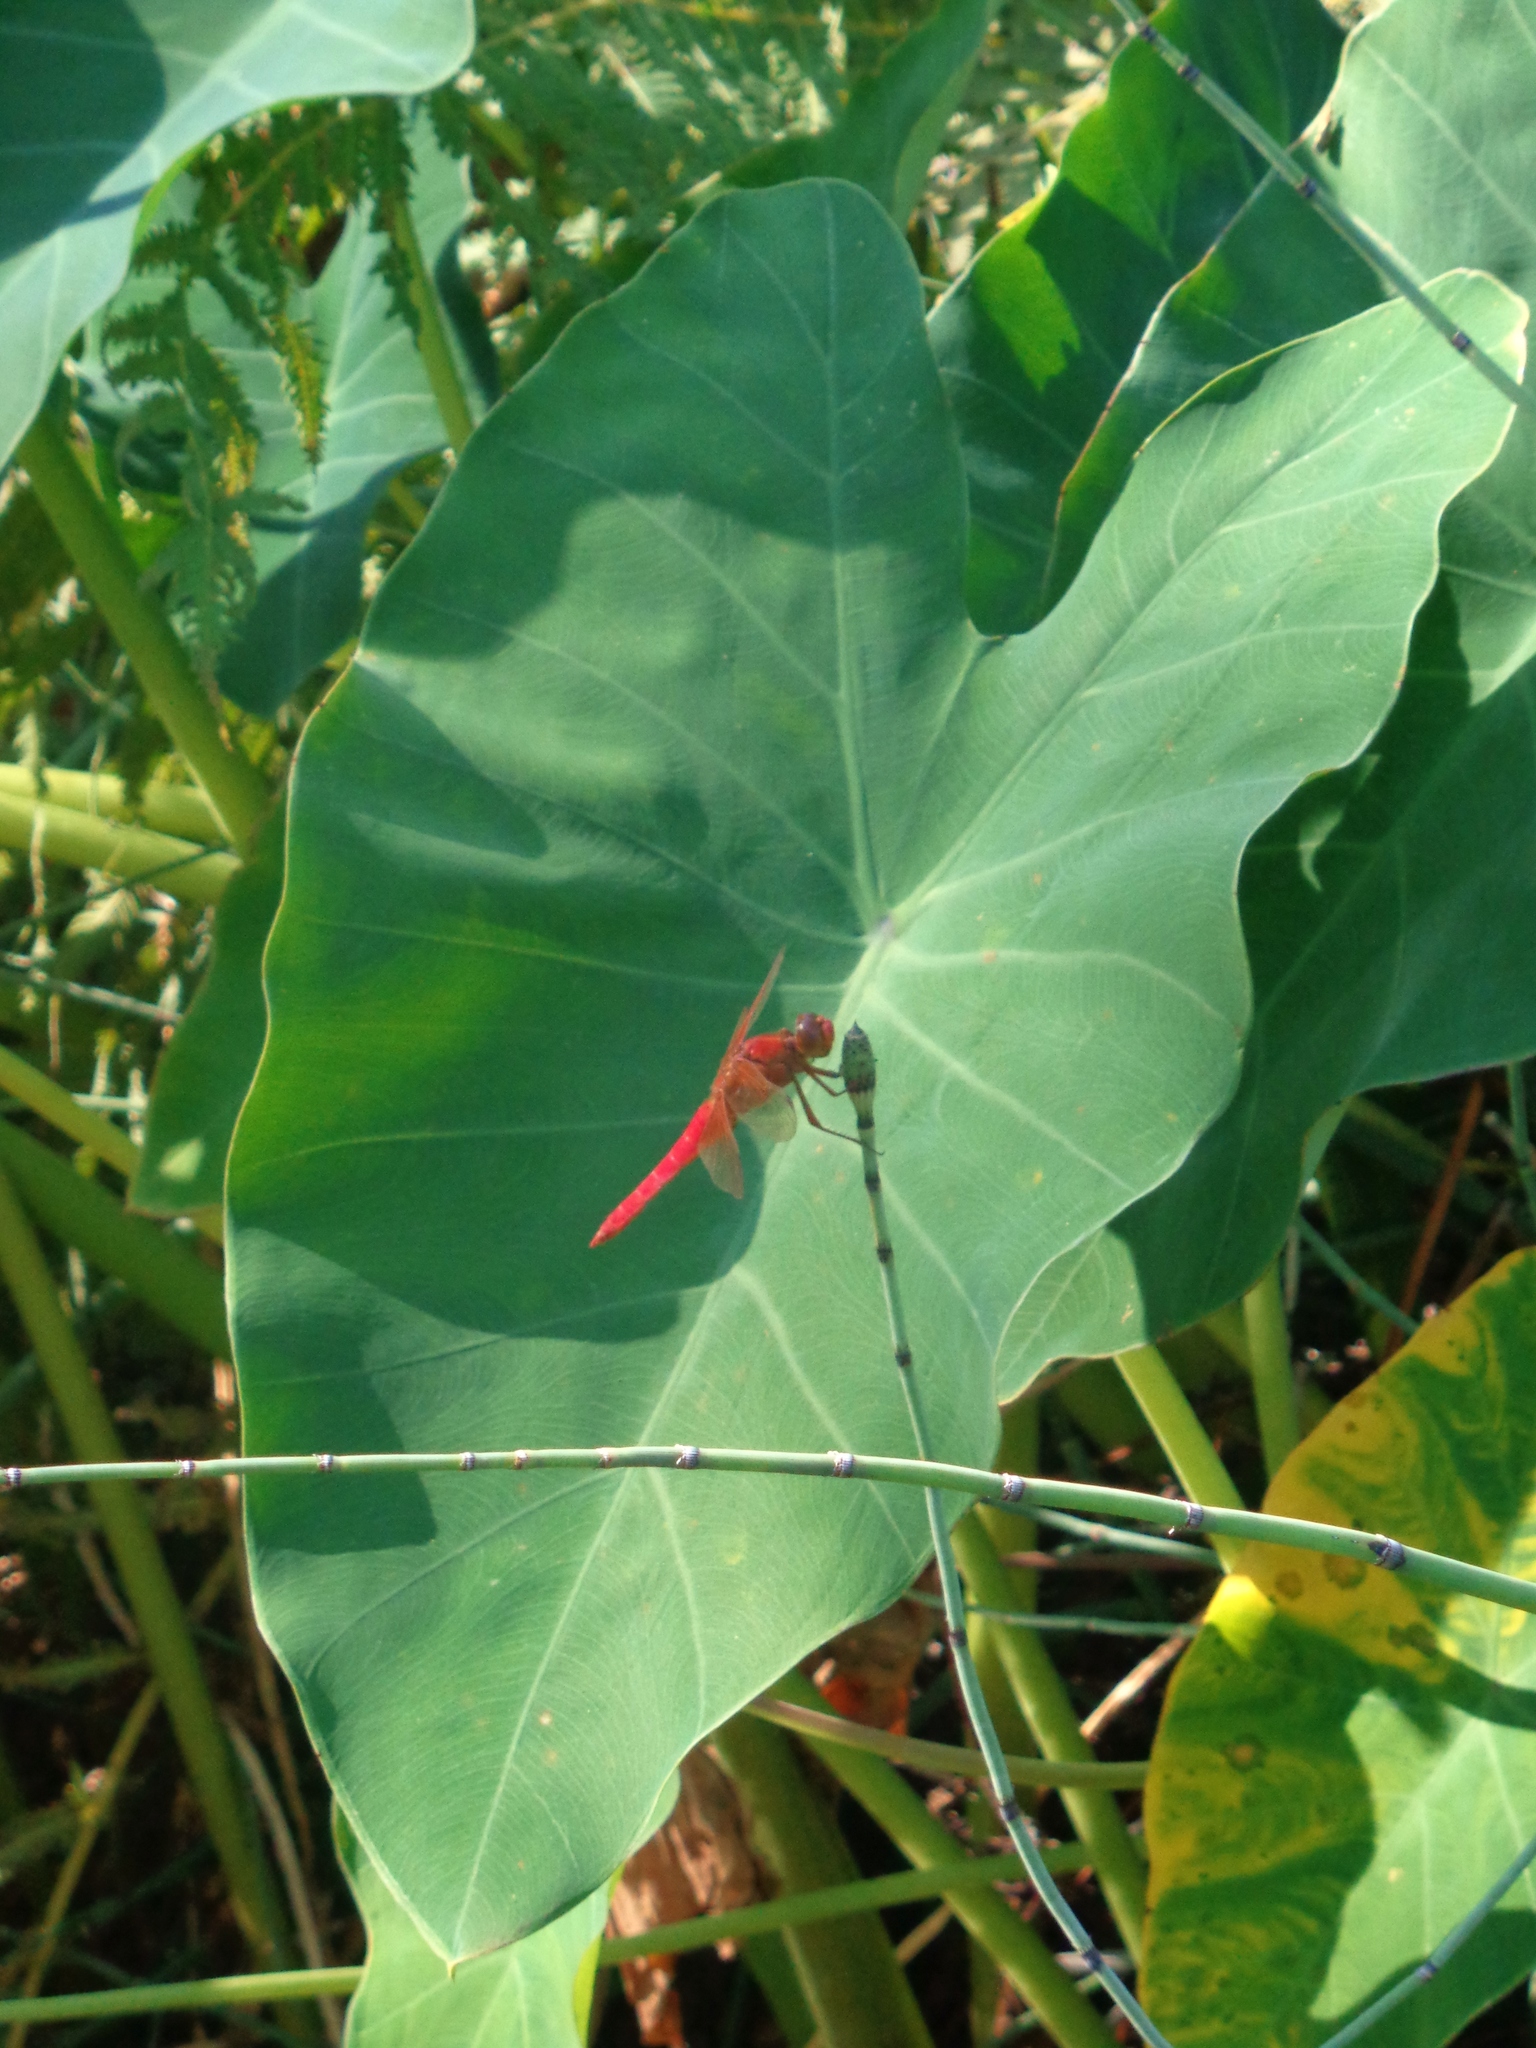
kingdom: Animalia
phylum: Arthropoda
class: Insecta
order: Odonata
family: Libellulidae
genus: Libellula
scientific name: Libellula croceipennis
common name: Neon skimmer
